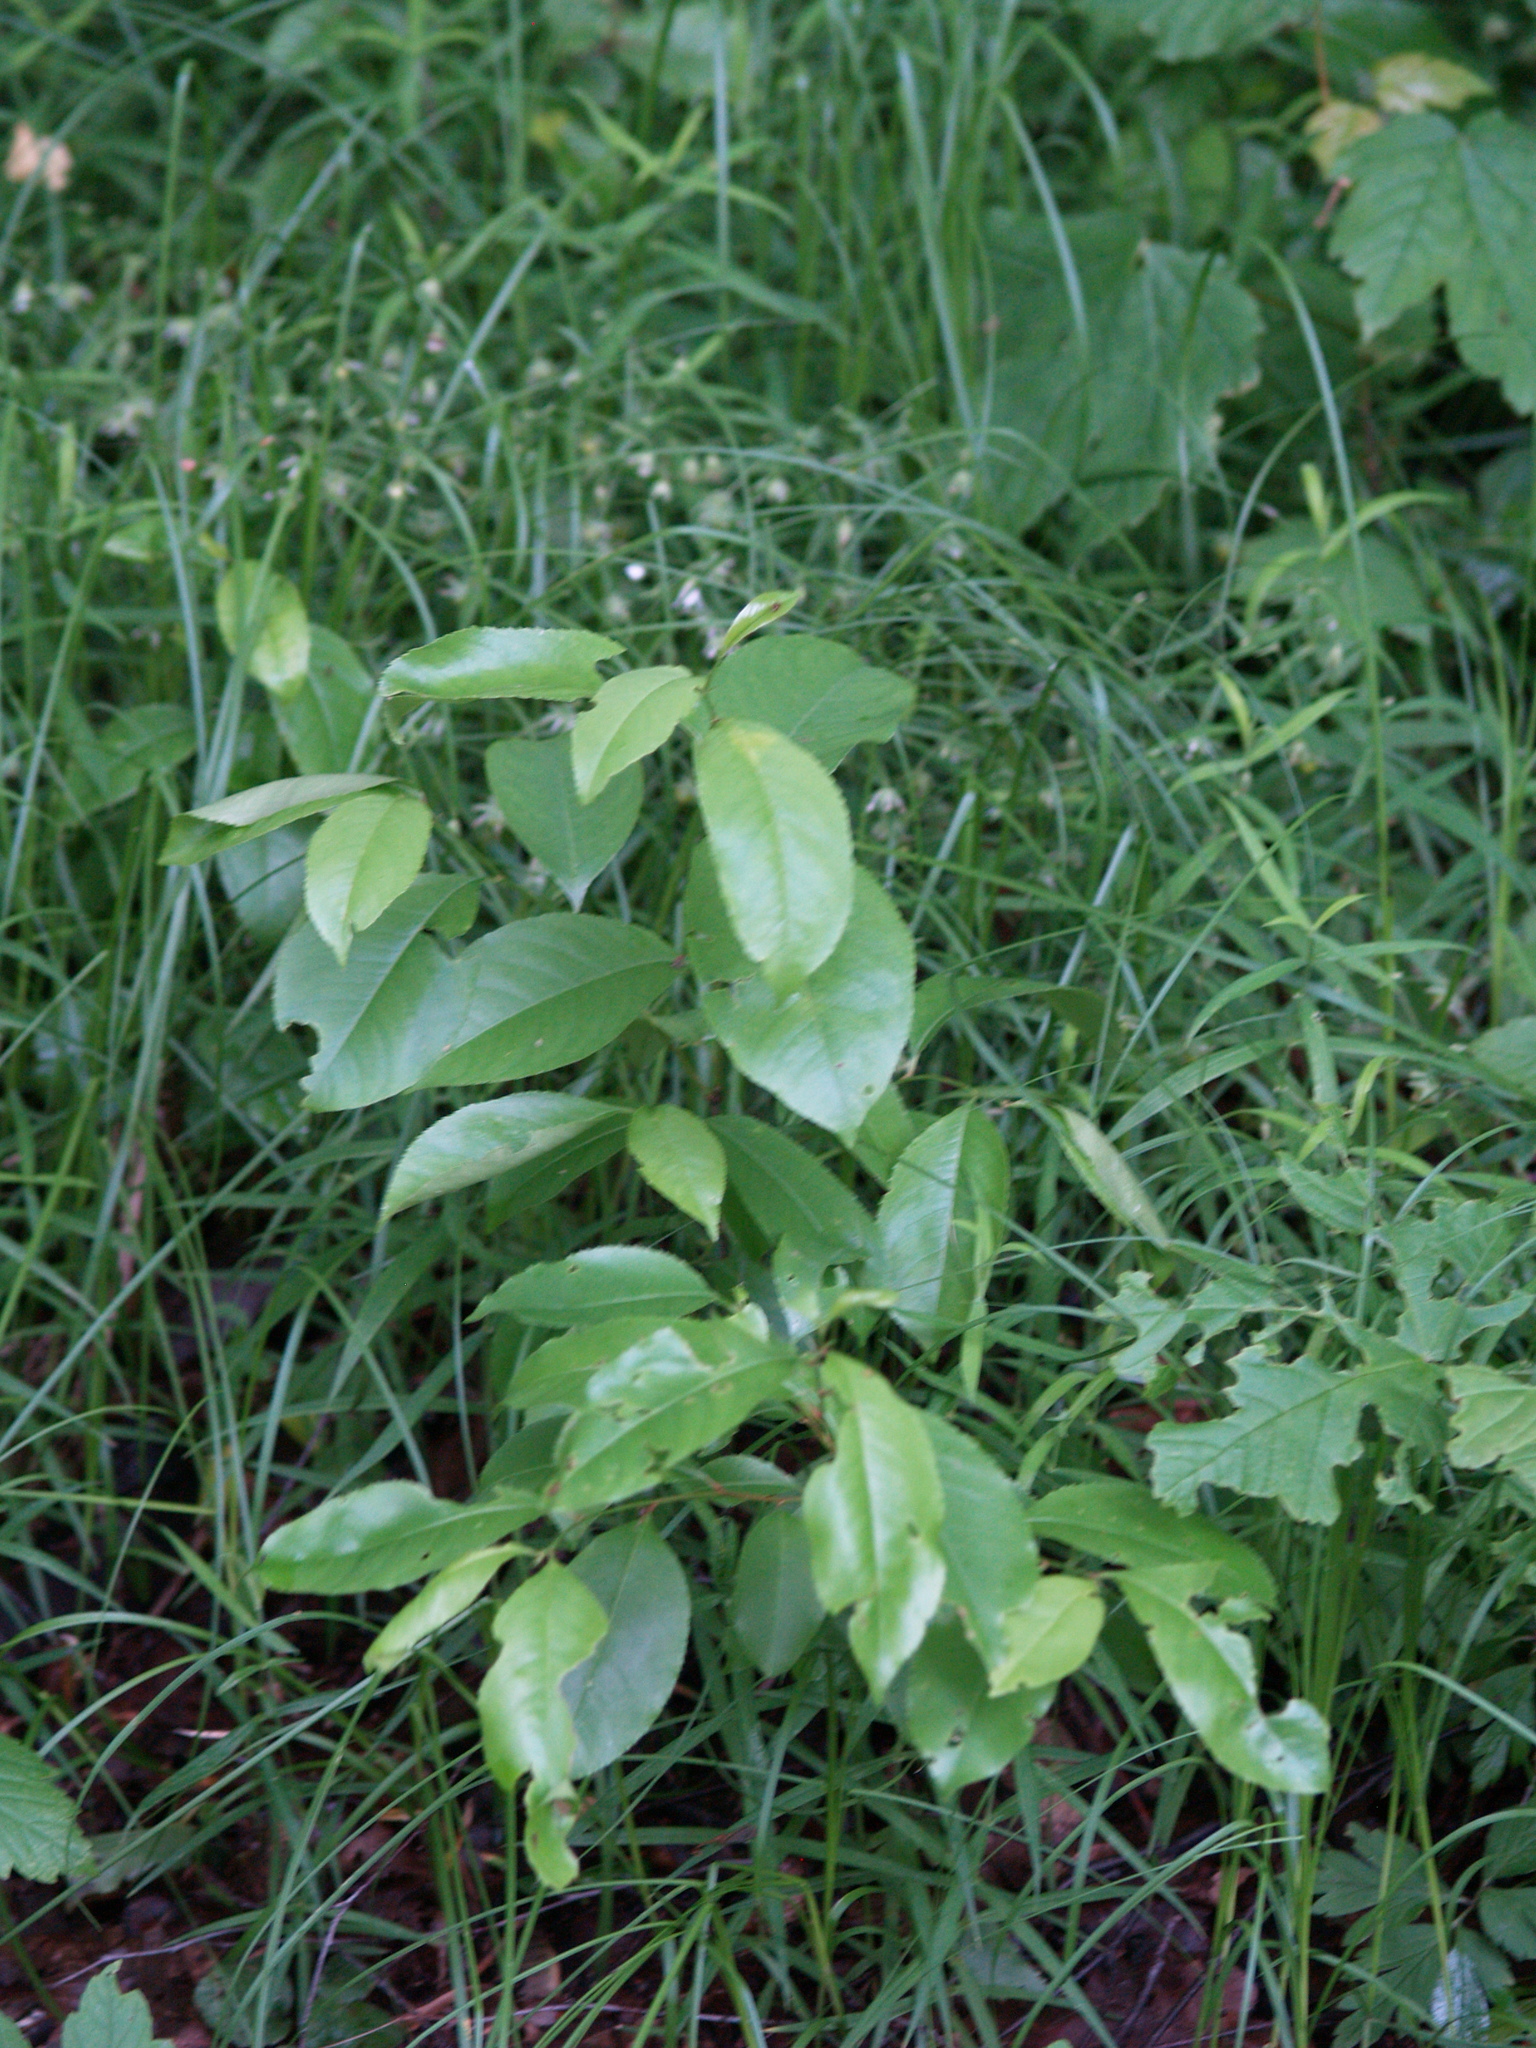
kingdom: Plantae
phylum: Tracheophyta
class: Magnoliopsida
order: Rosales
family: Rosaceae
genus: Prunus
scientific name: Prunus serotina
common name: Black cherry
